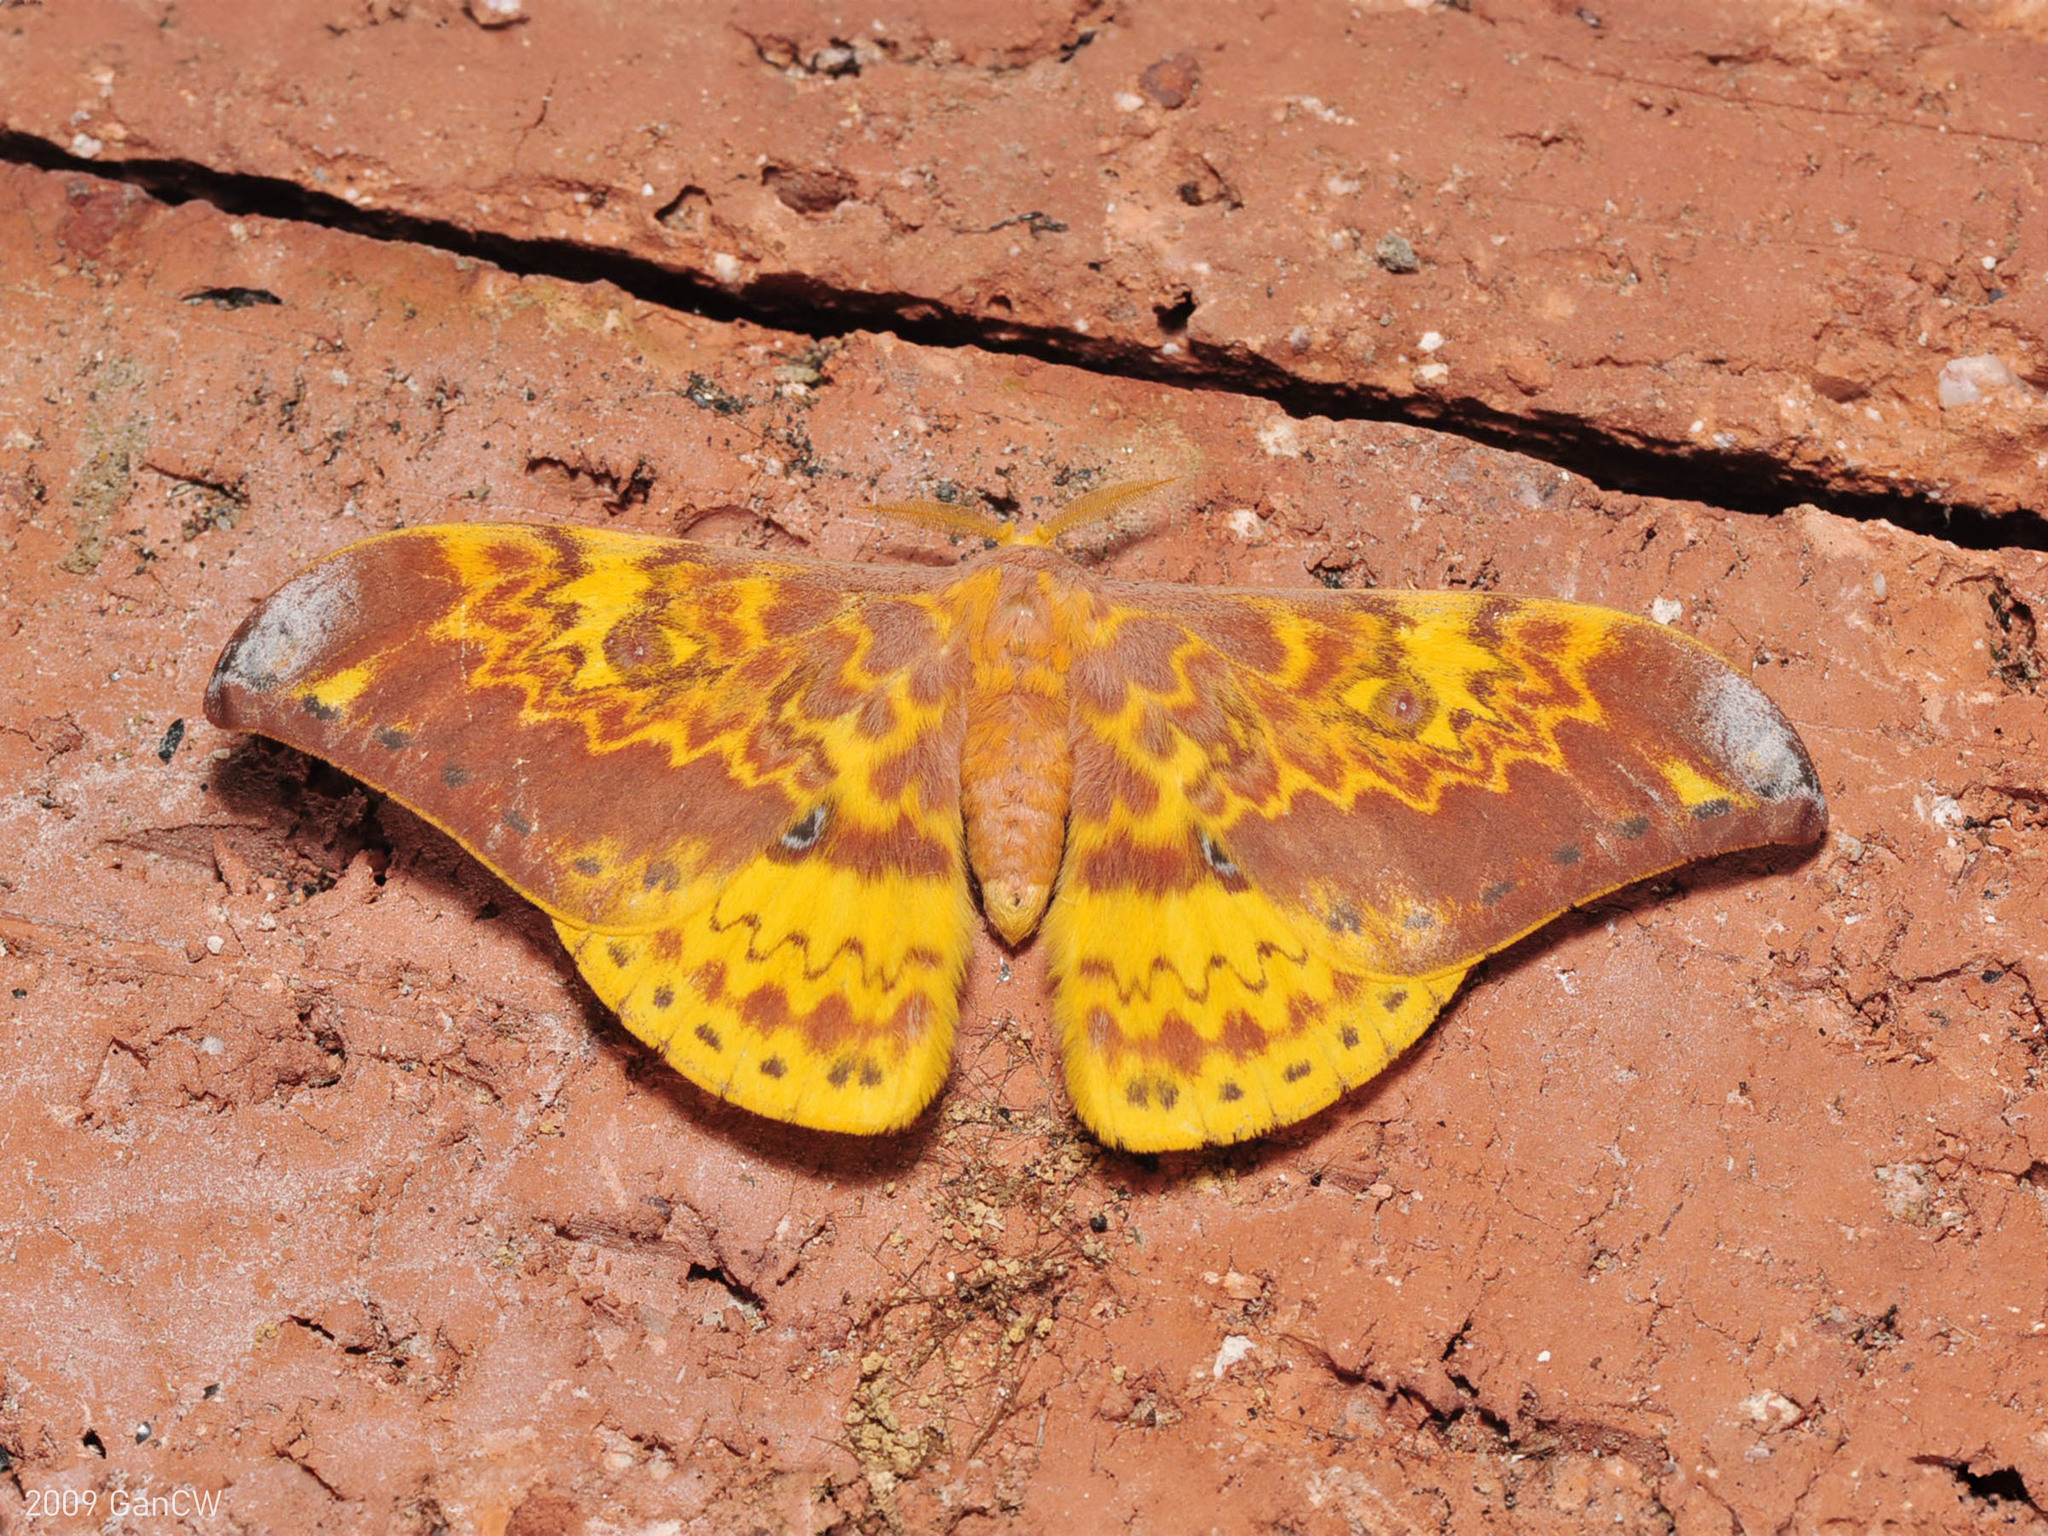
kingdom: Animalia
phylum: Arthropoda
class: Insecta
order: Lepidoptera
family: Saturniidae
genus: Lemaireia
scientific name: Lemaireia loepoides
